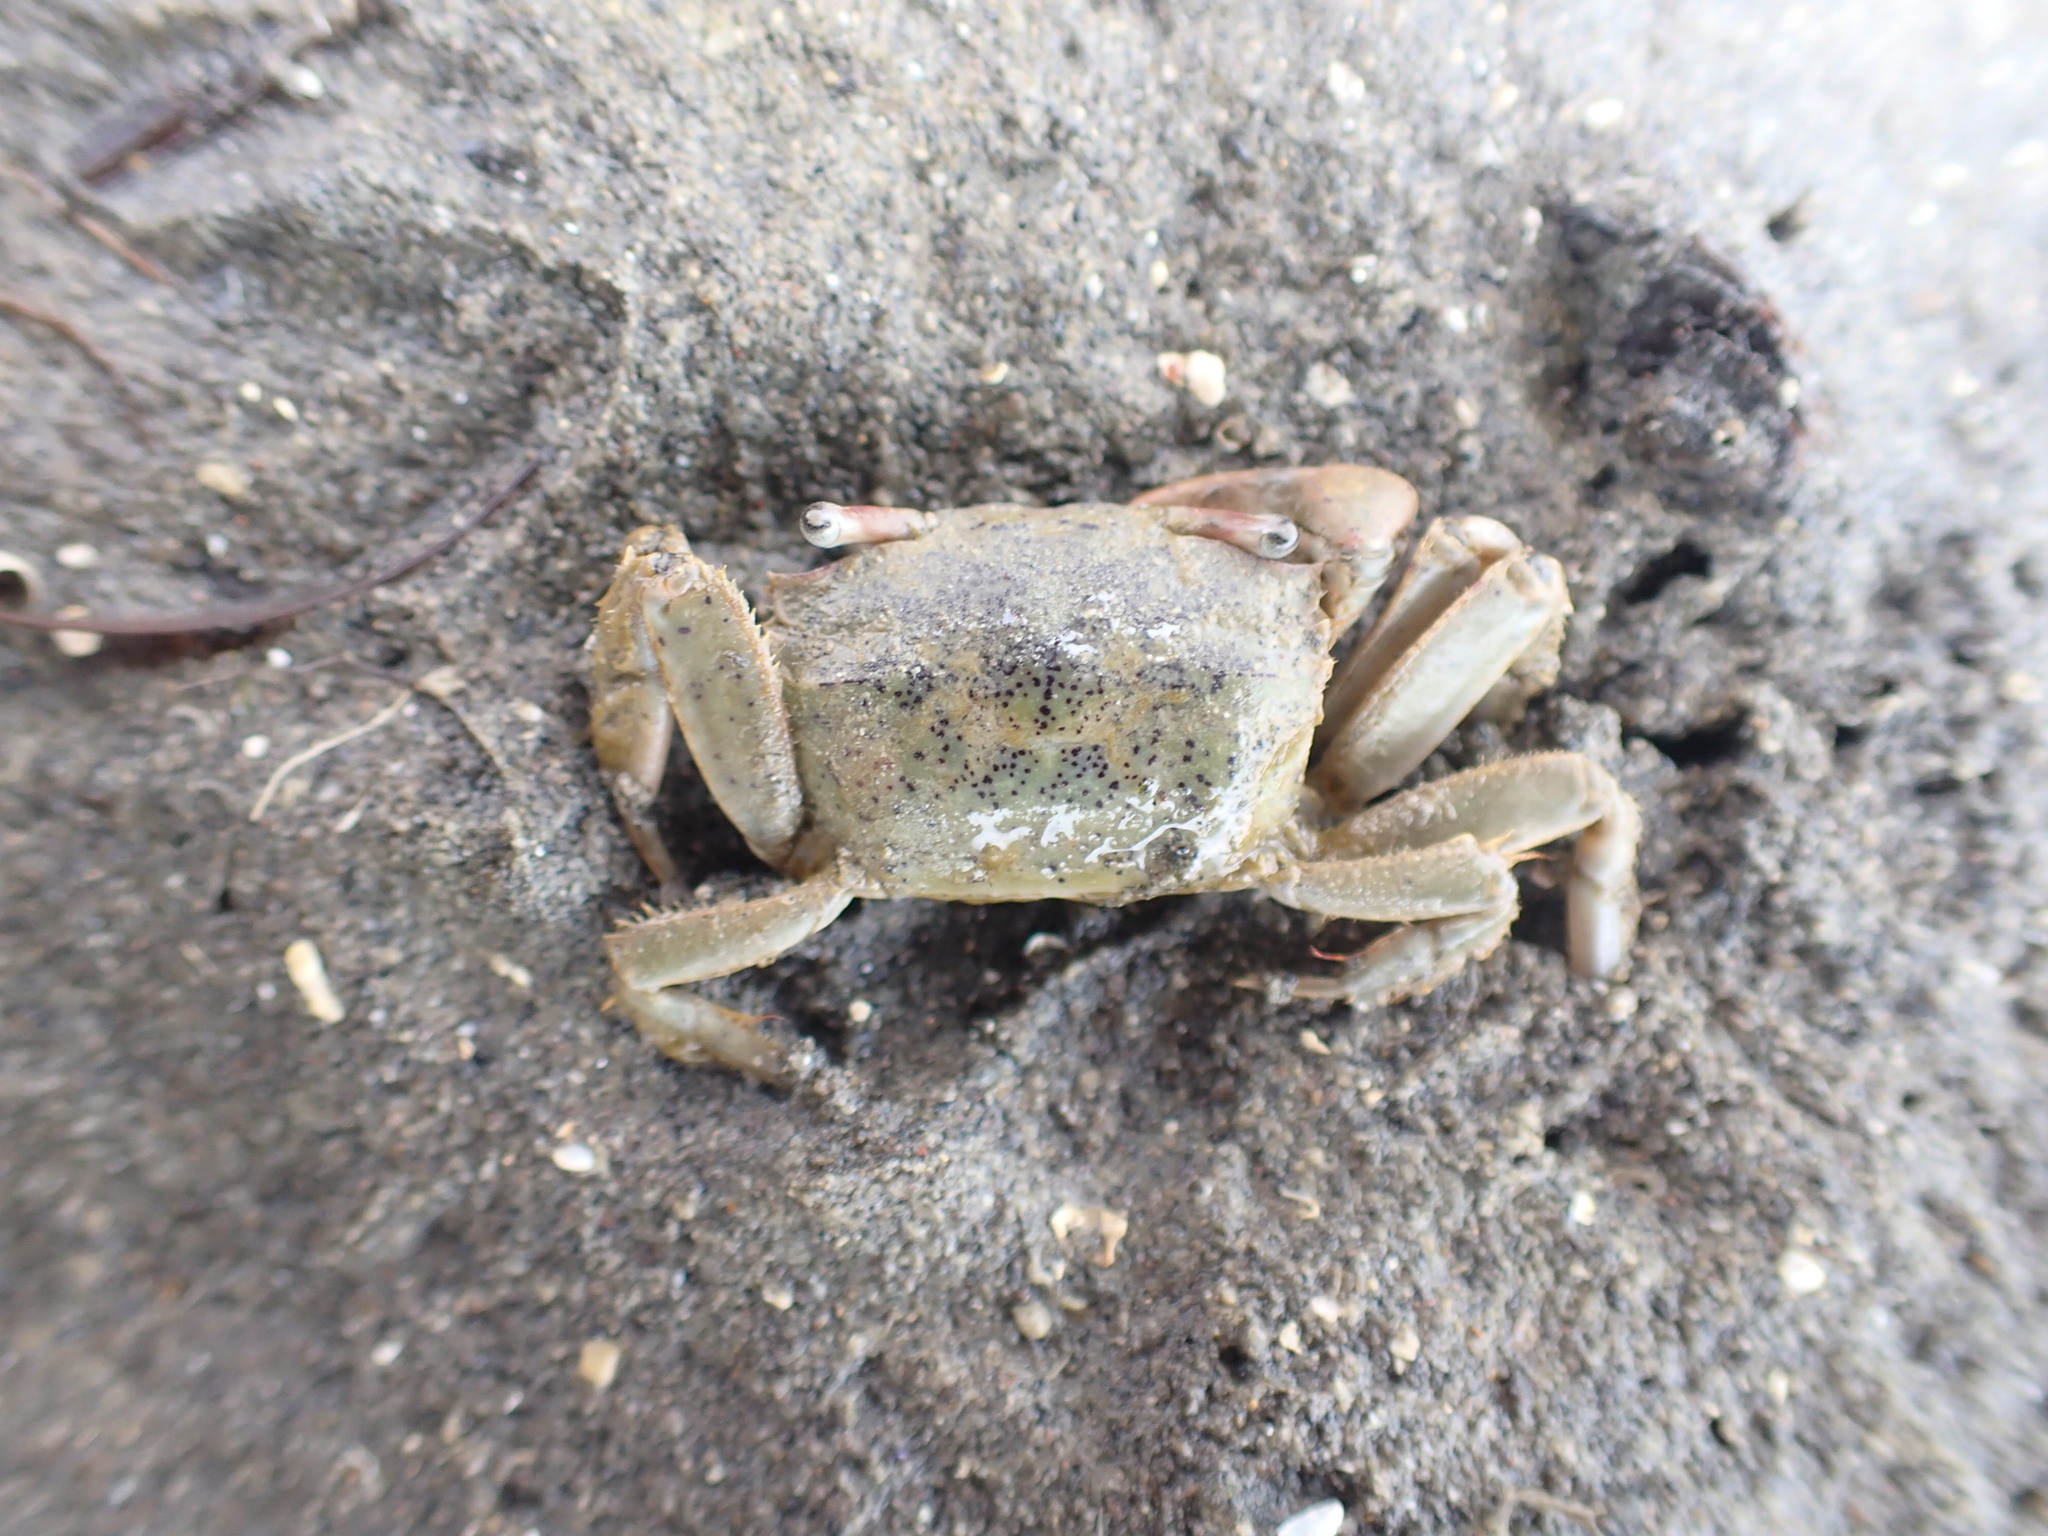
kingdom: Animalia
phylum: Arthropoda
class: Malacostraca
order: Decapoda
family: Macrophthalmidae
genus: Hemiplax
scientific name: Hemiplax hirtipes
